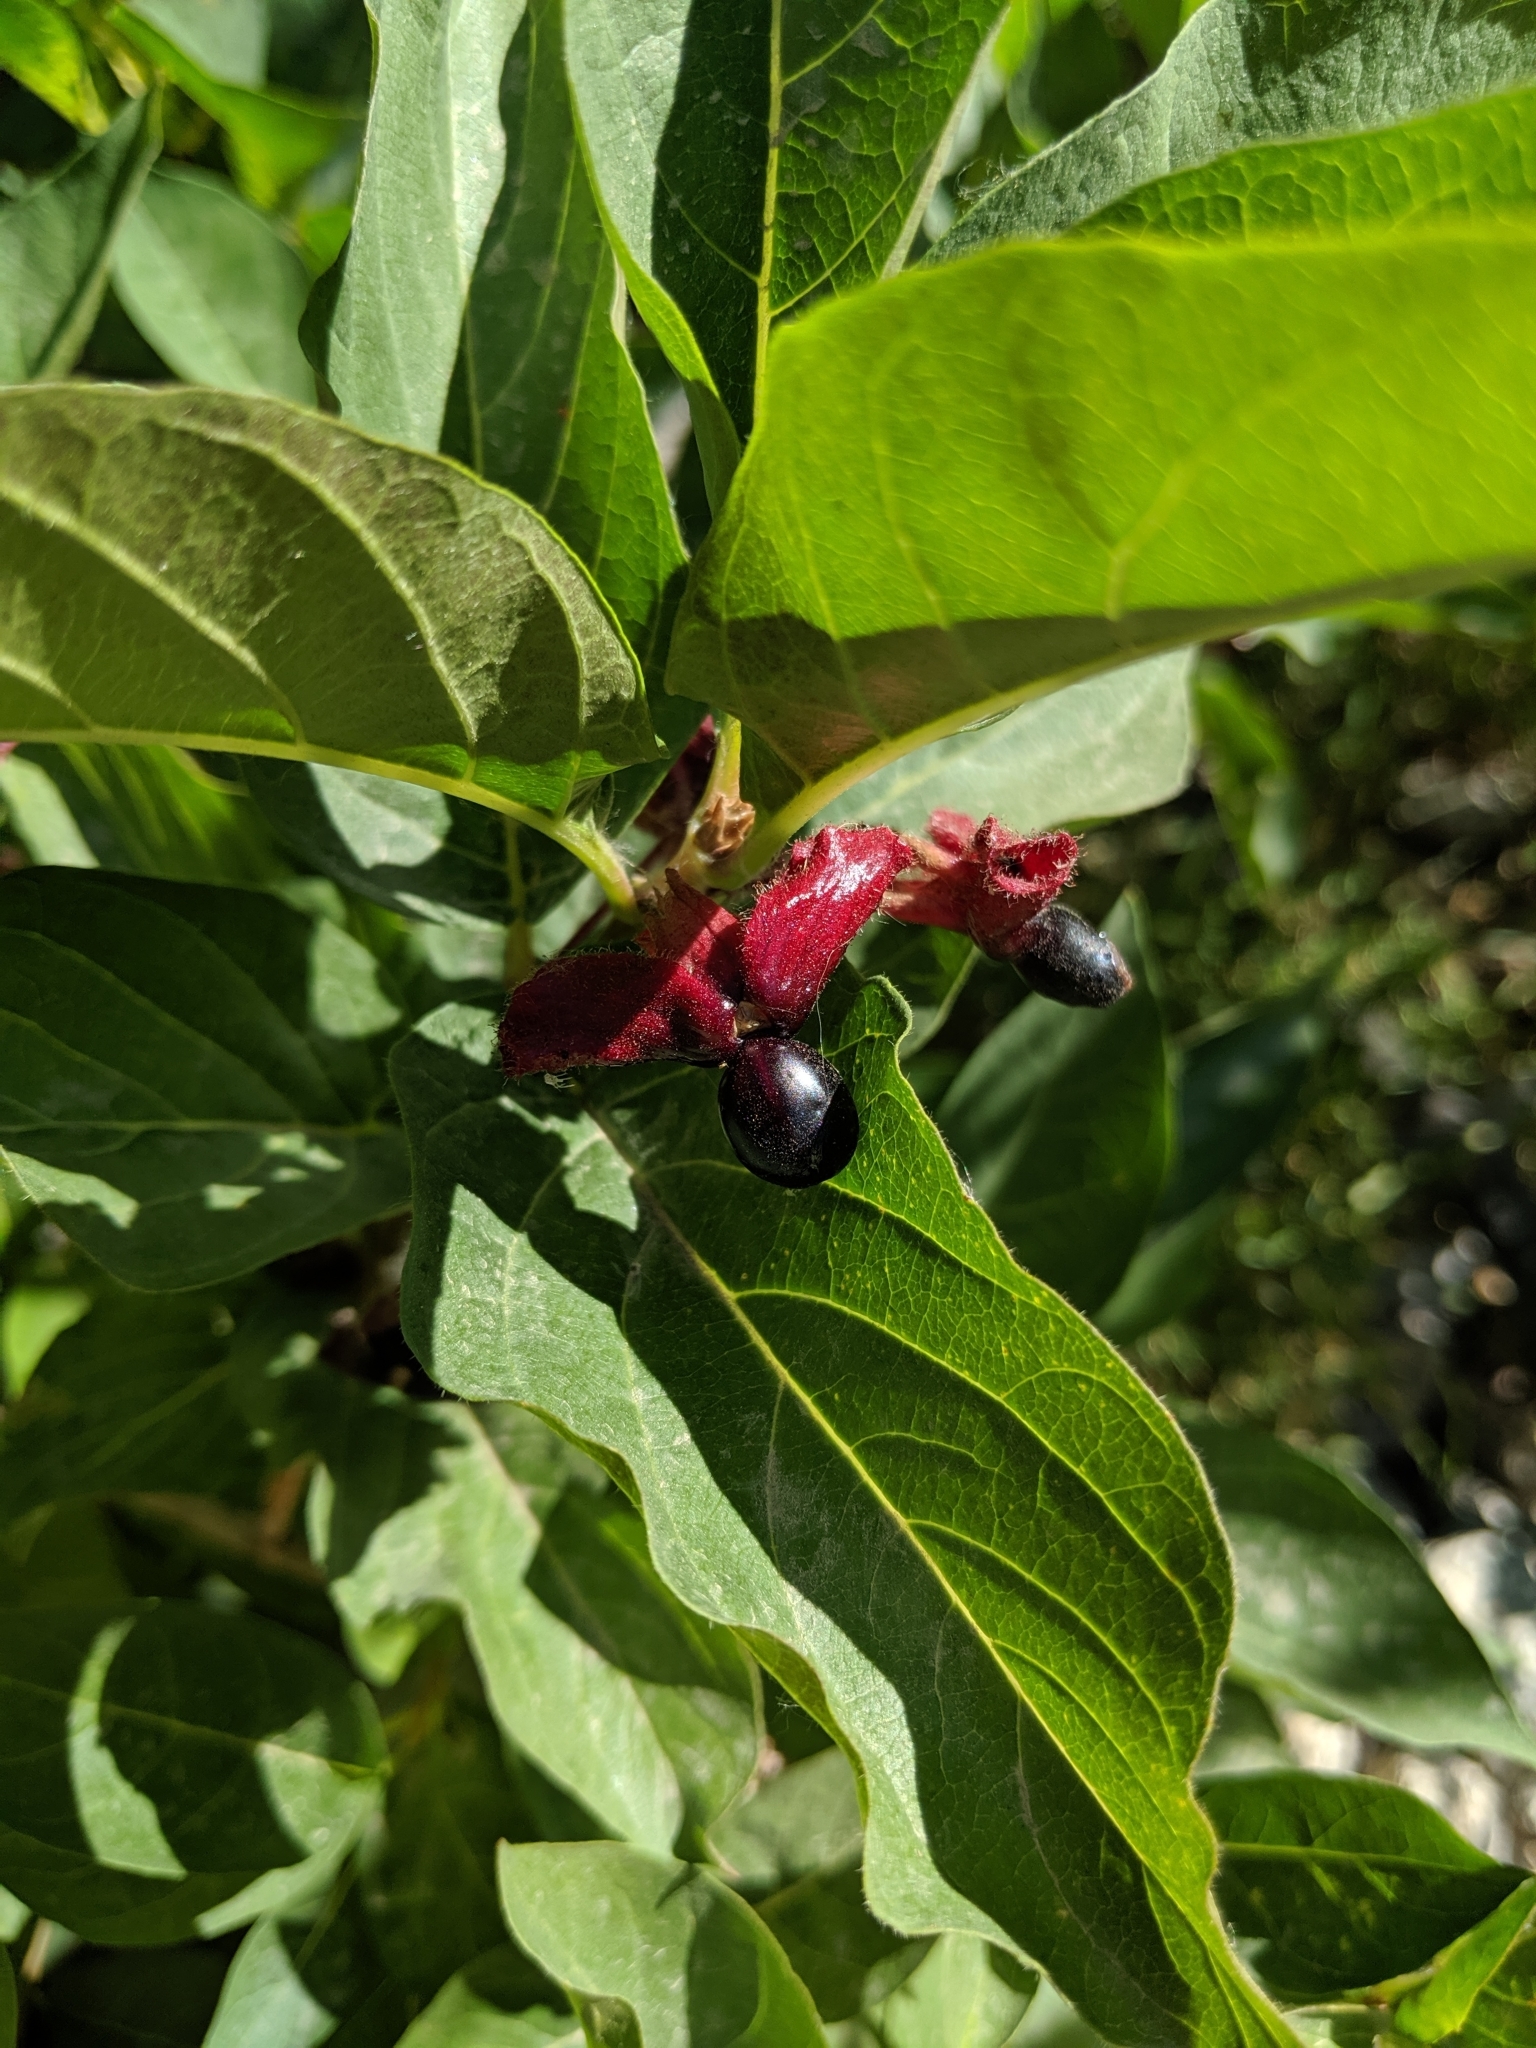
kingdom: Plantae
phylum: Tracheophyta
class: Magnoliopsida
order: Dipsacales
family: Caprifoliaceae
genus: Lonicera
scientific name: Lonicera involucrata
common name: Californian honeysuckle
